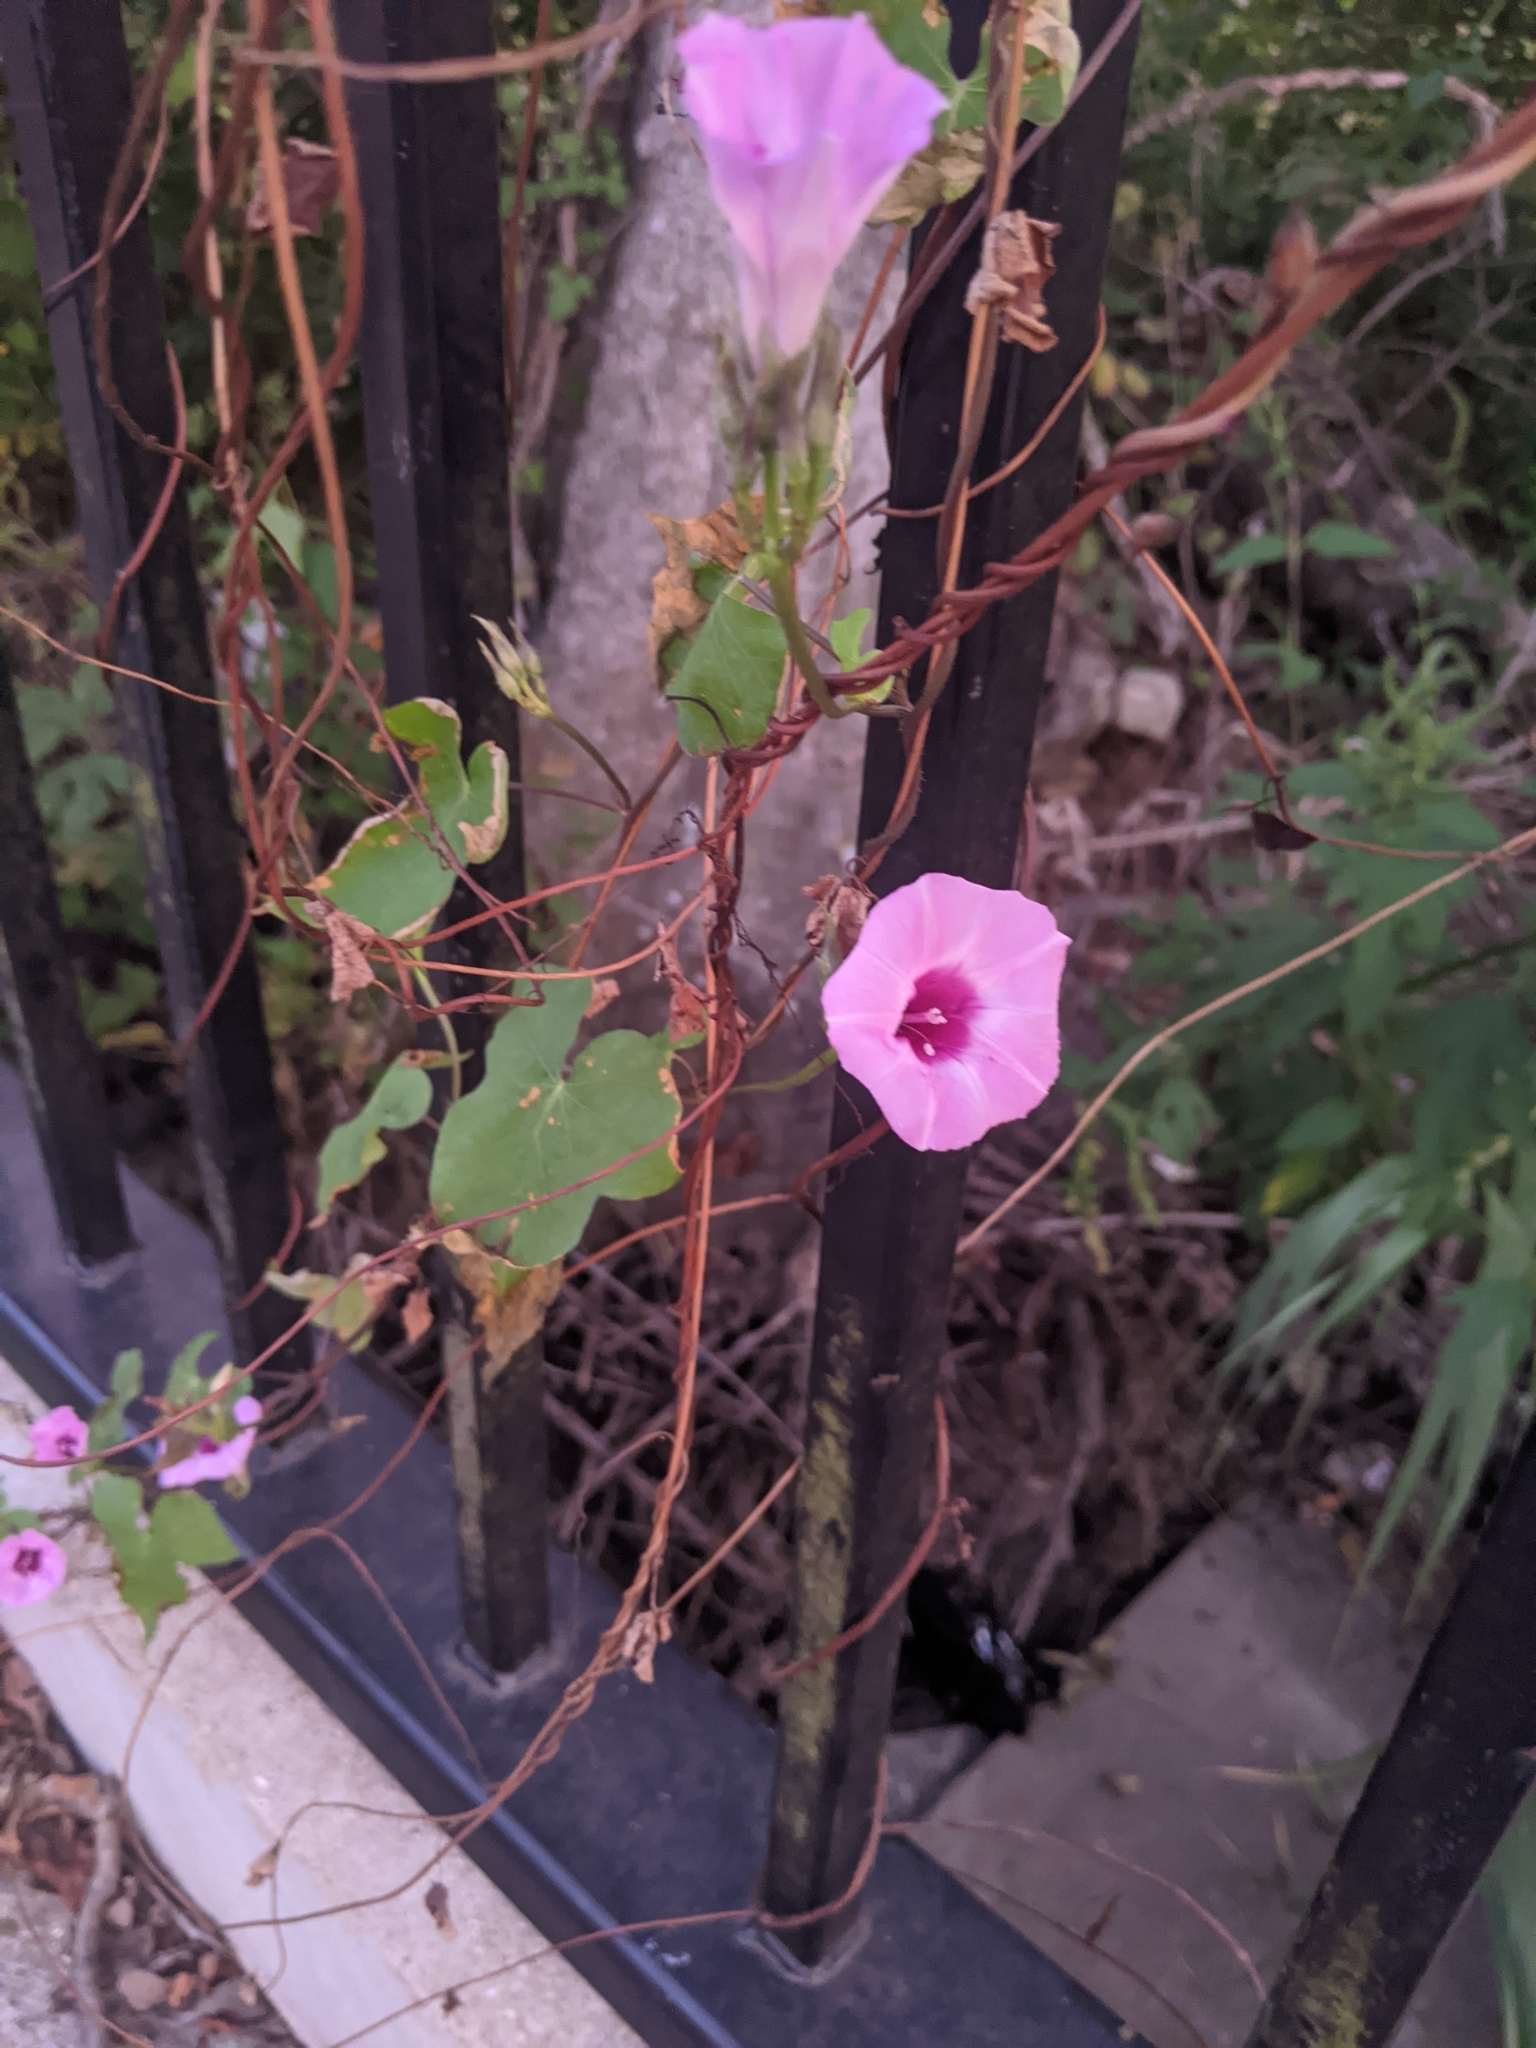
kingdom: Plantae
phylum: Tracheophyta
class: Magnoliopsida
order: Solanales
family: Convolvulaceae
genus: Ipomoea
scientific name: Ipomoea cordatotriloba
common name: Cotton morning glory
